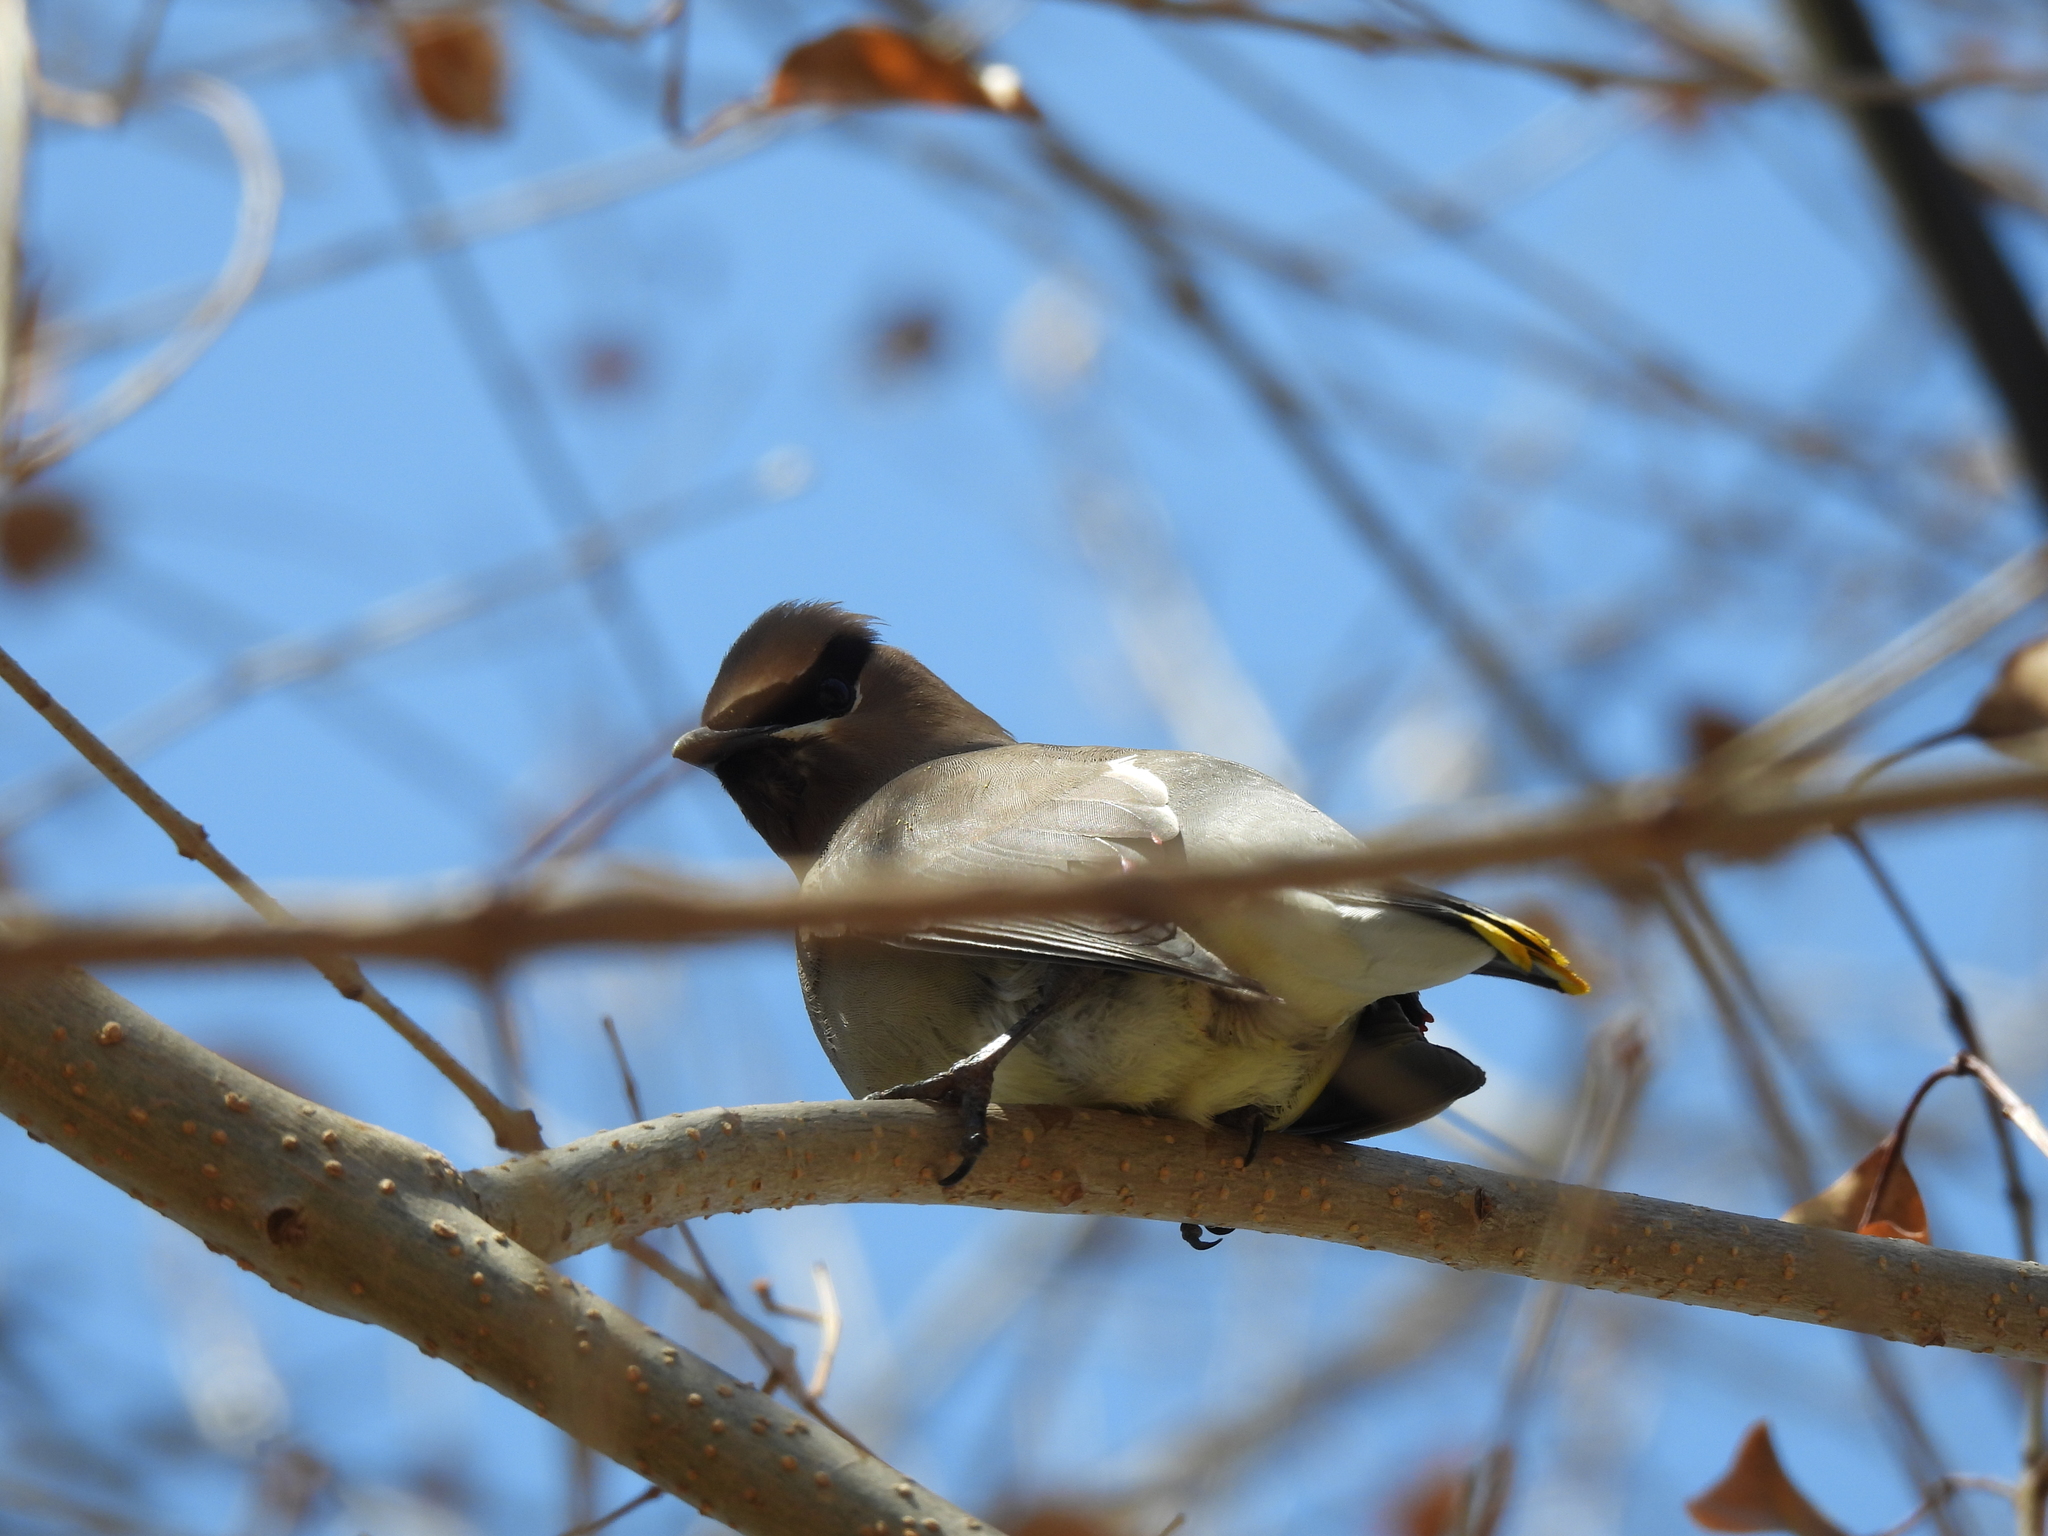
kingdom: Animalia
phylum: Chordata
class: Aves
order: Passeriformes
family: Bombycillidae
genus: Bombycilla
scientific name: Bombycilla cedrorum
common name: Cedar waxwing
